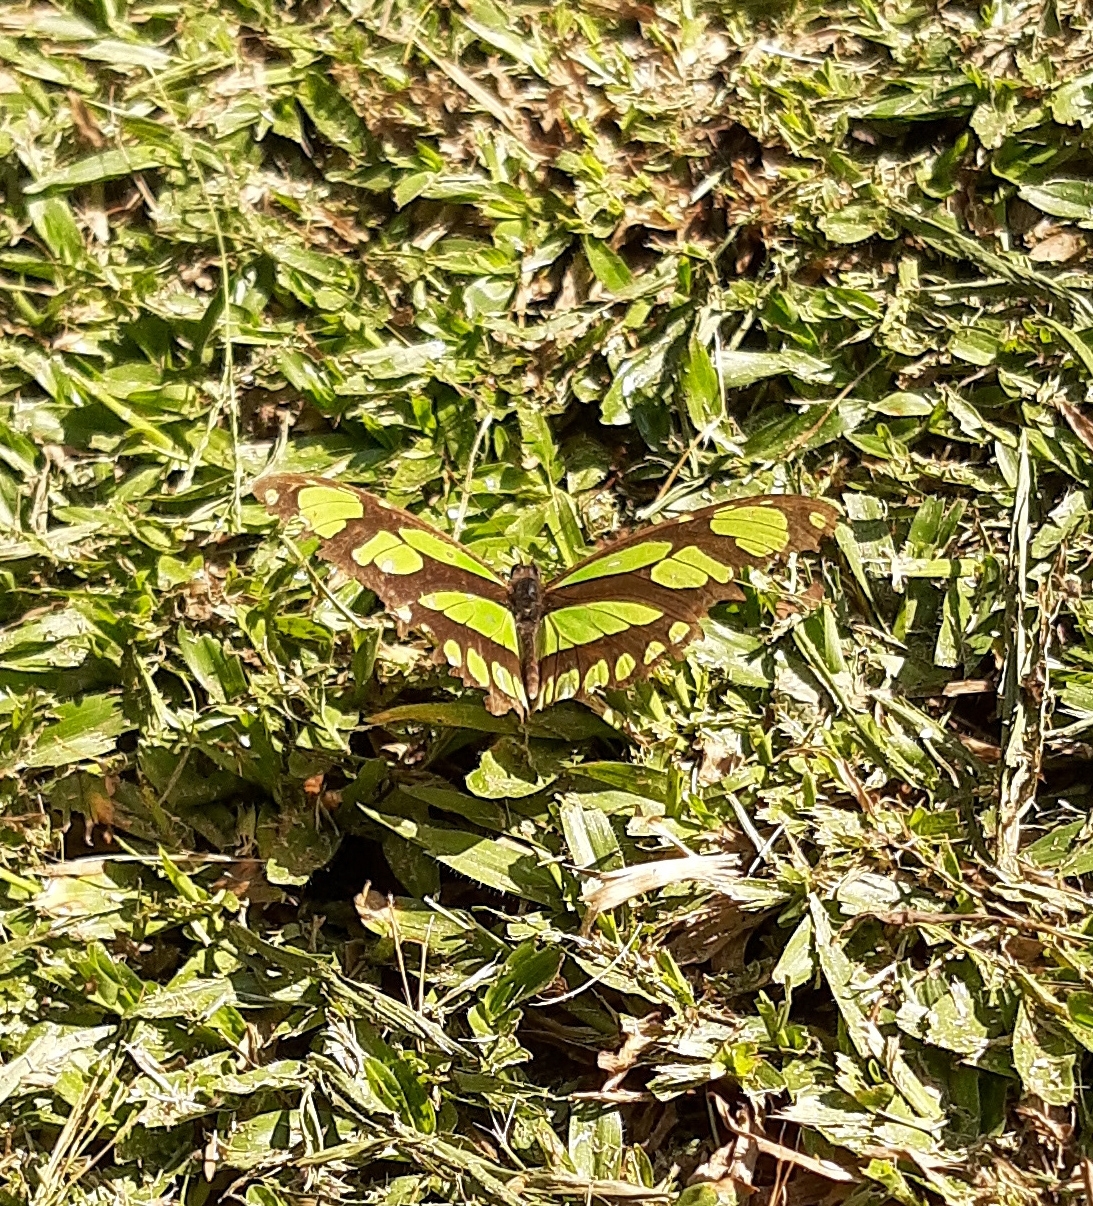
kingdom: Animalia
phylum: Arthropoda
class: Insecta
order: Lepidoptera
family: Nymphalidae
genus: Philaethria
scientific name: Philaethria dido
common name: Scarce bamboo page
